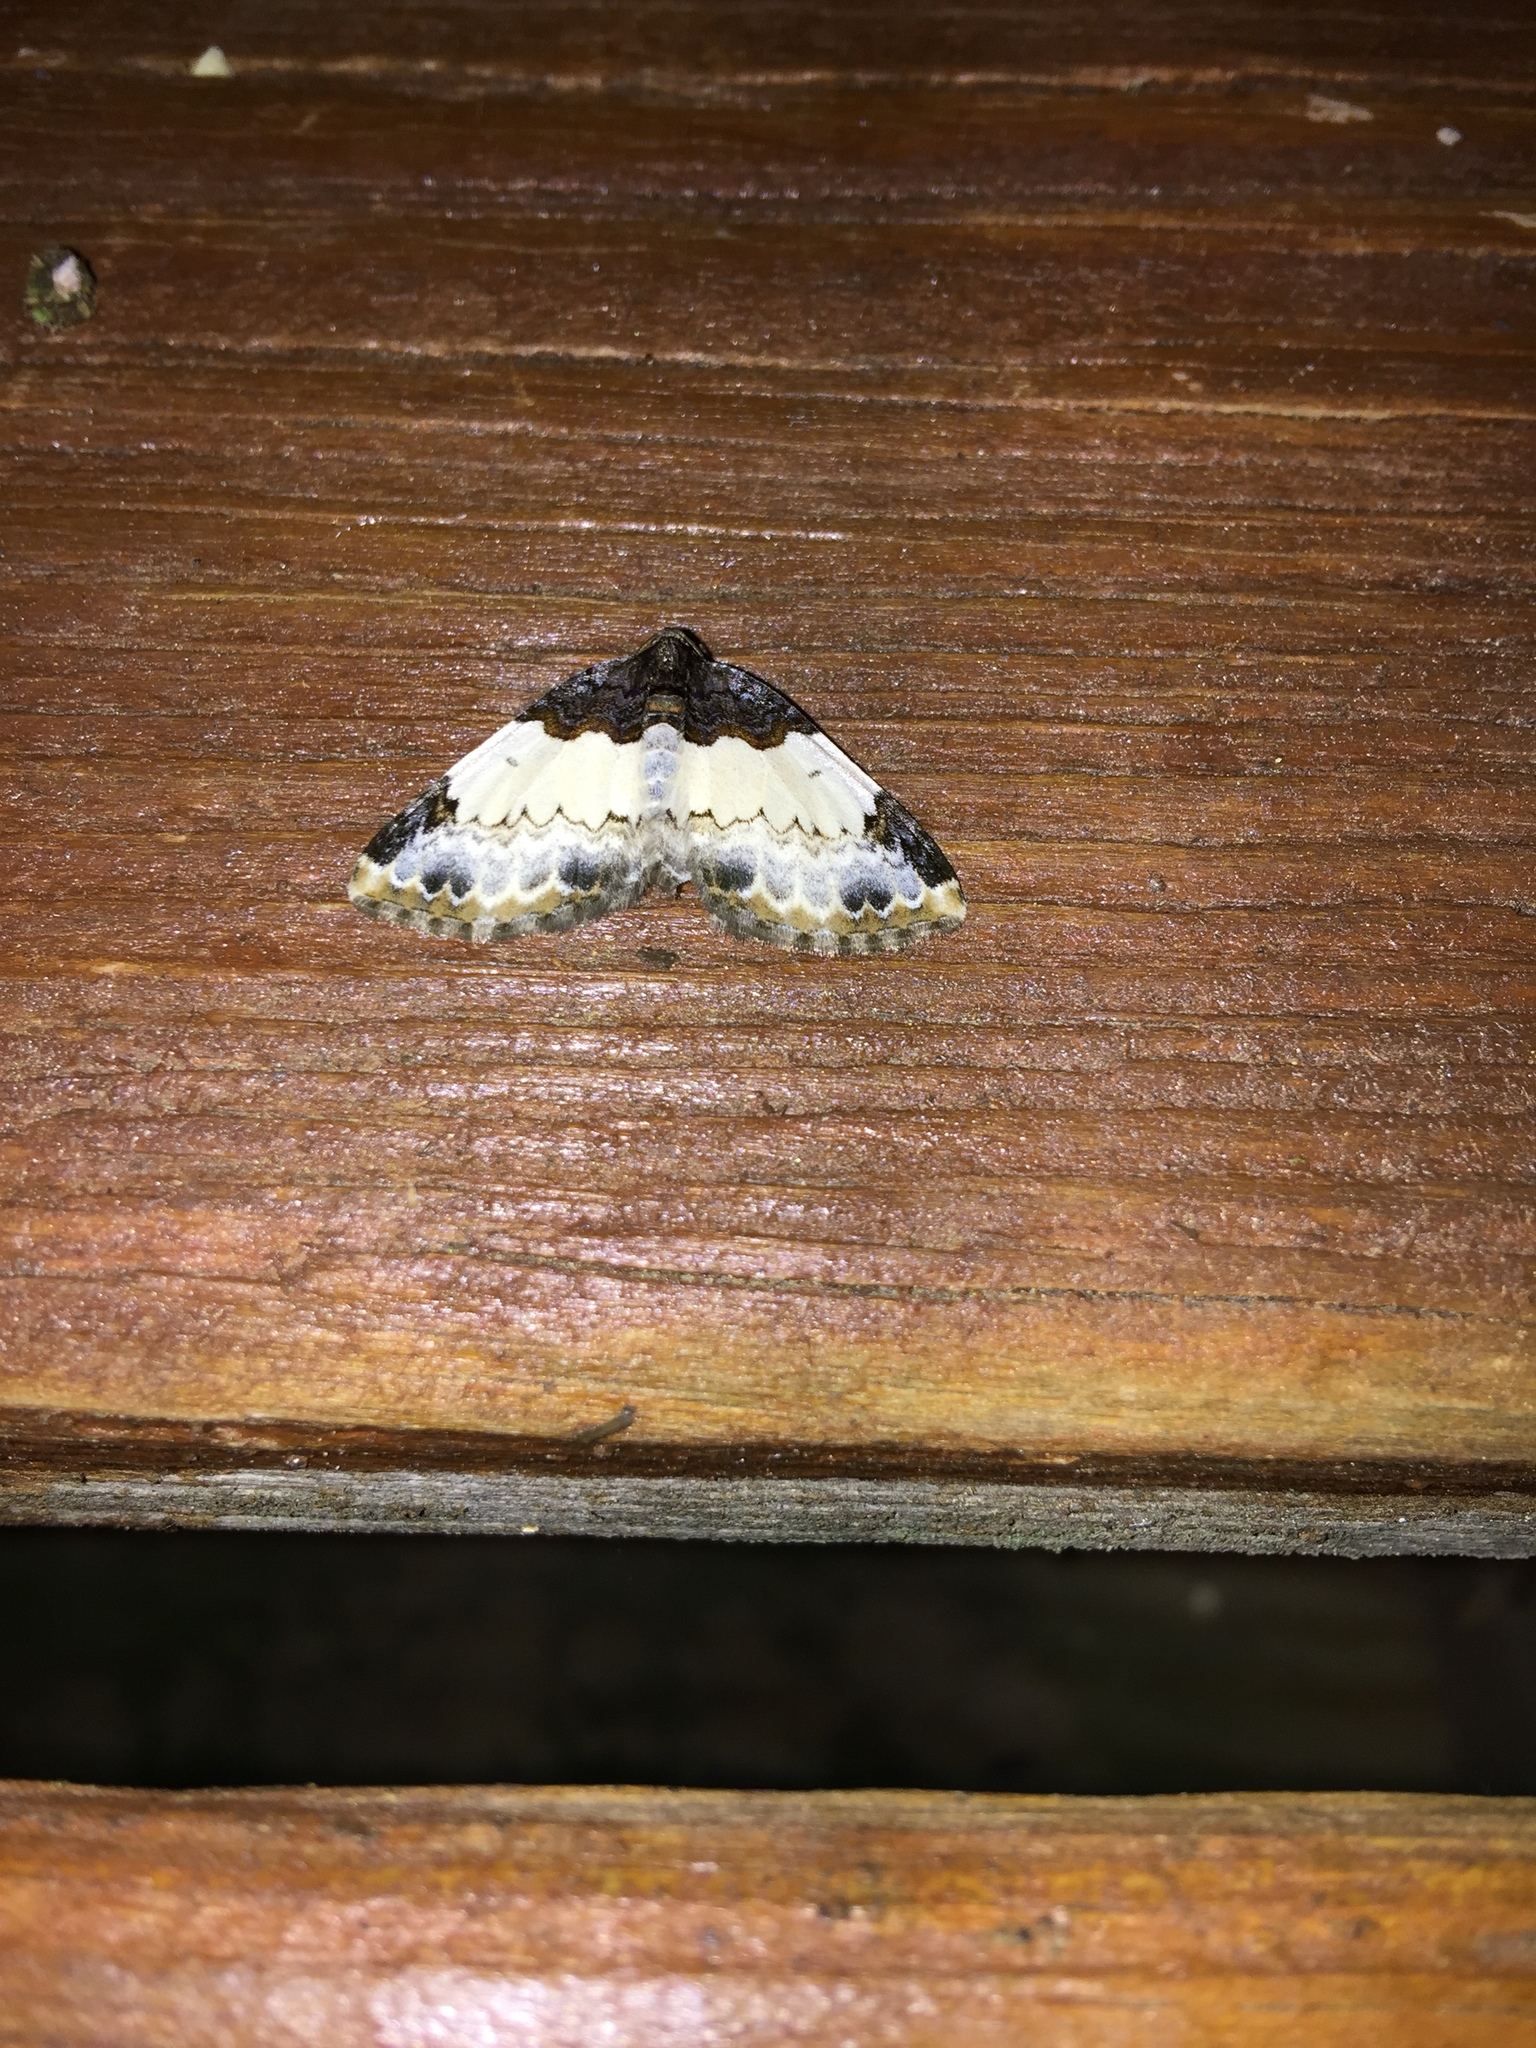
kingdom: Animalia
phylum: Arthropoda
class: Insecta
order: Lepidoptera
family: Geometridae
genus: Mesoleuca
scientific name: Mesoleuca ruficillata
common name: White-ribboned carpet moth
